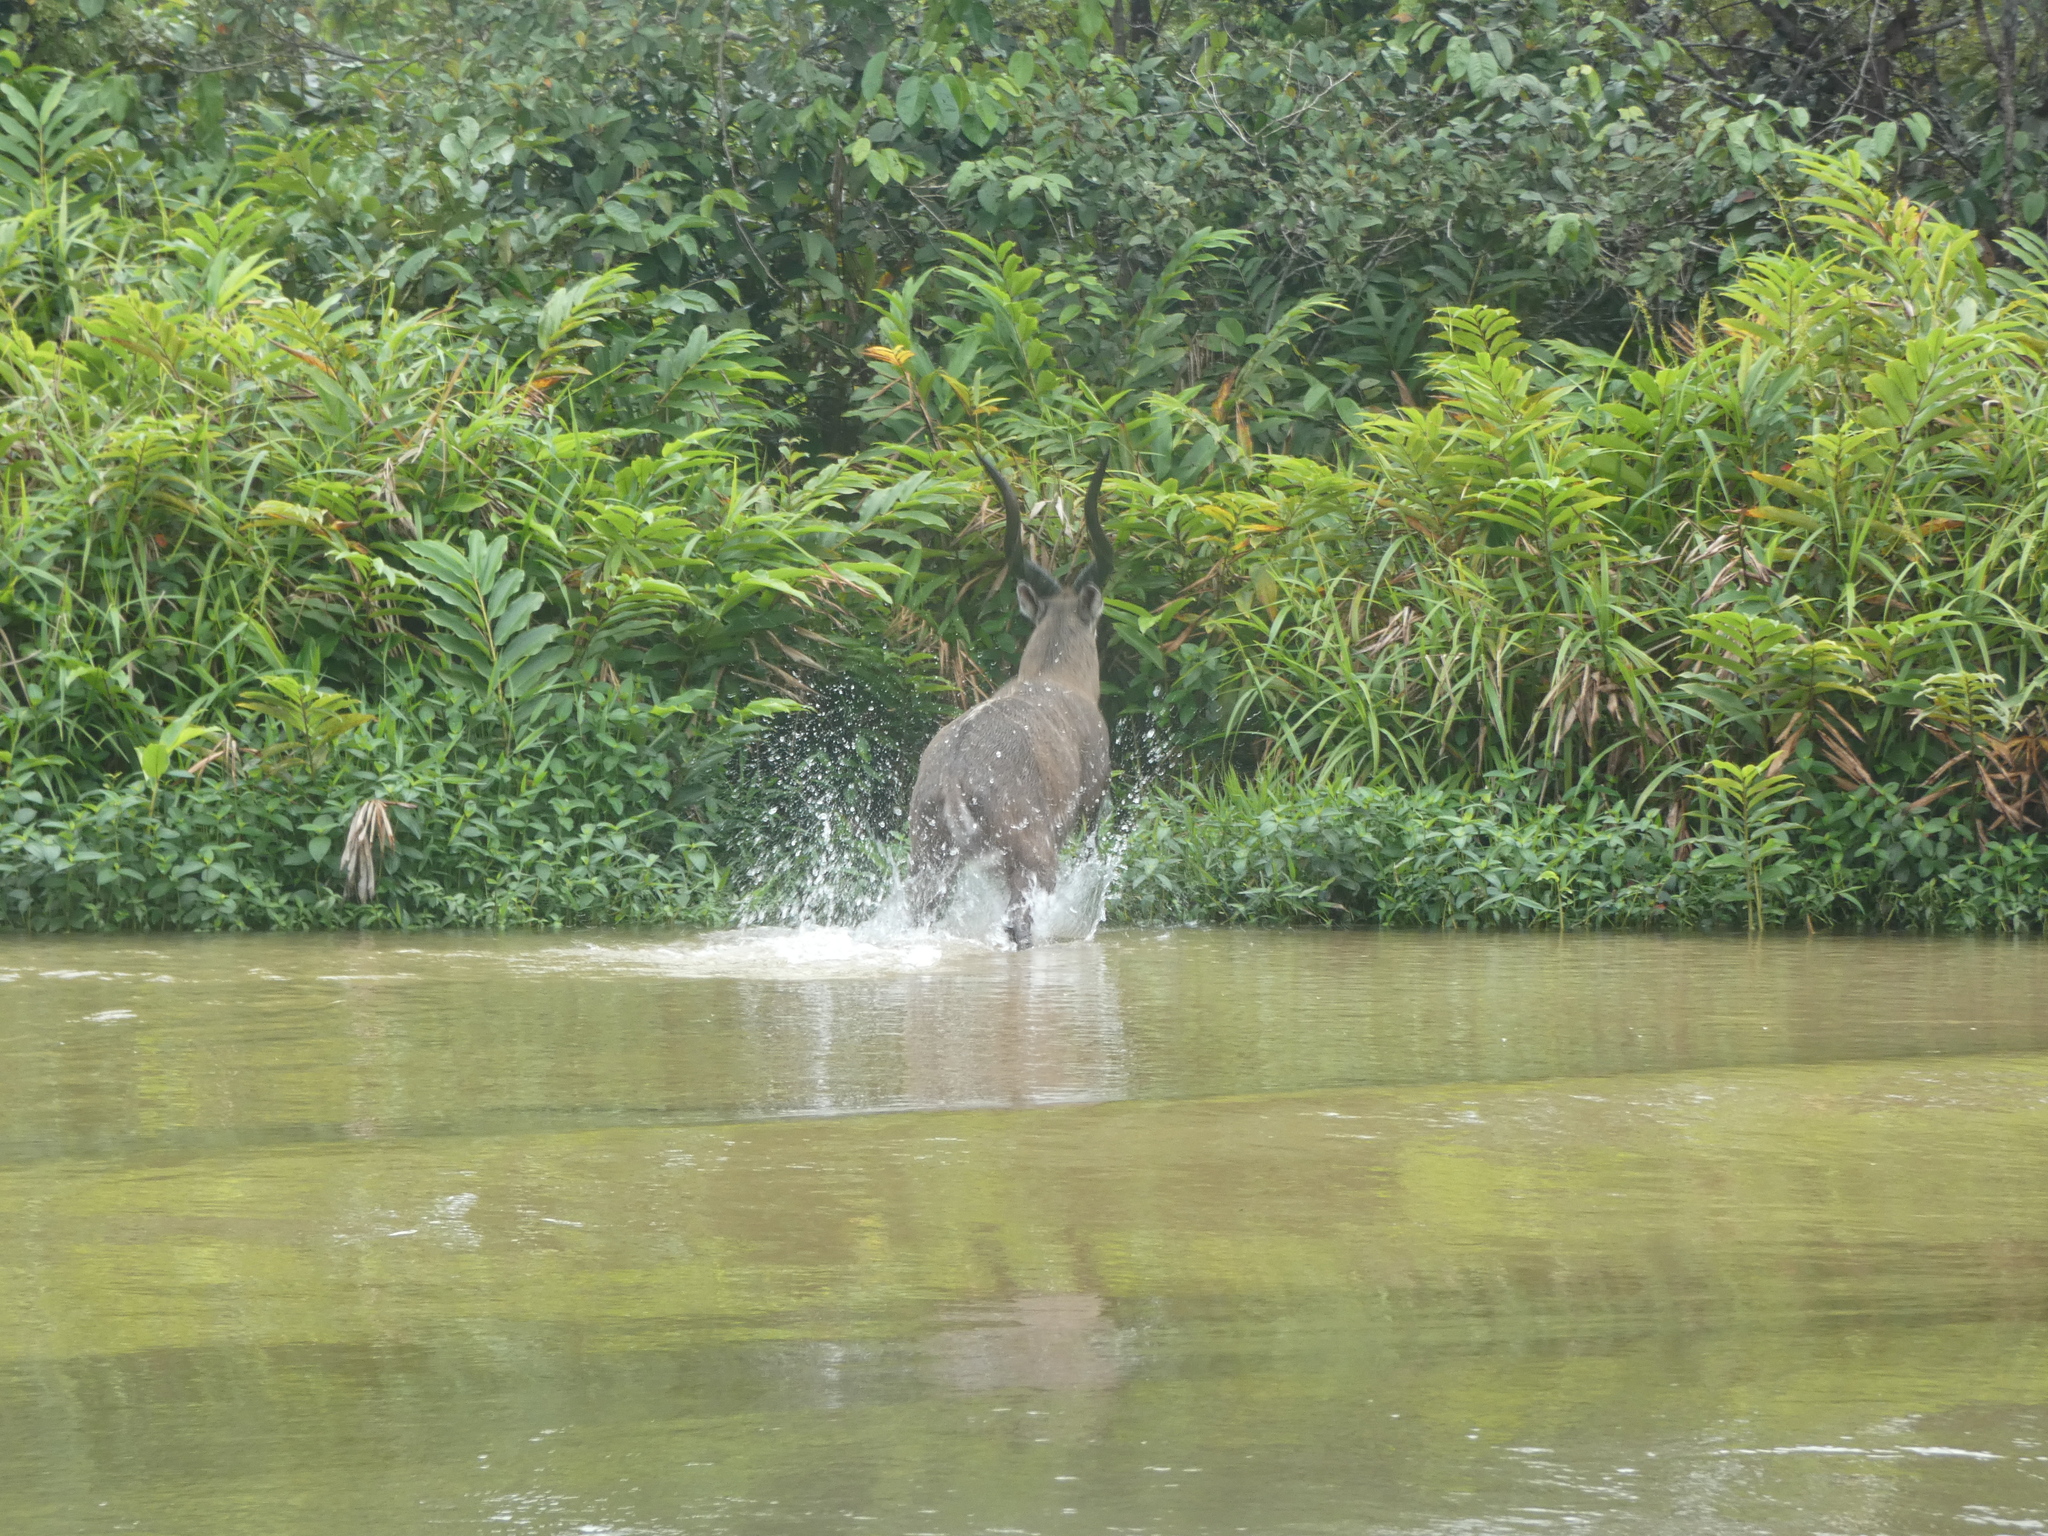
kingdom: Animalia
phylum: Chordata
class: Mammalia
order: Artiodactyla
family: Bovidae
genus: Tragelaphus
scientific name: Tragelaphus spekii
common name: Sitatunga
